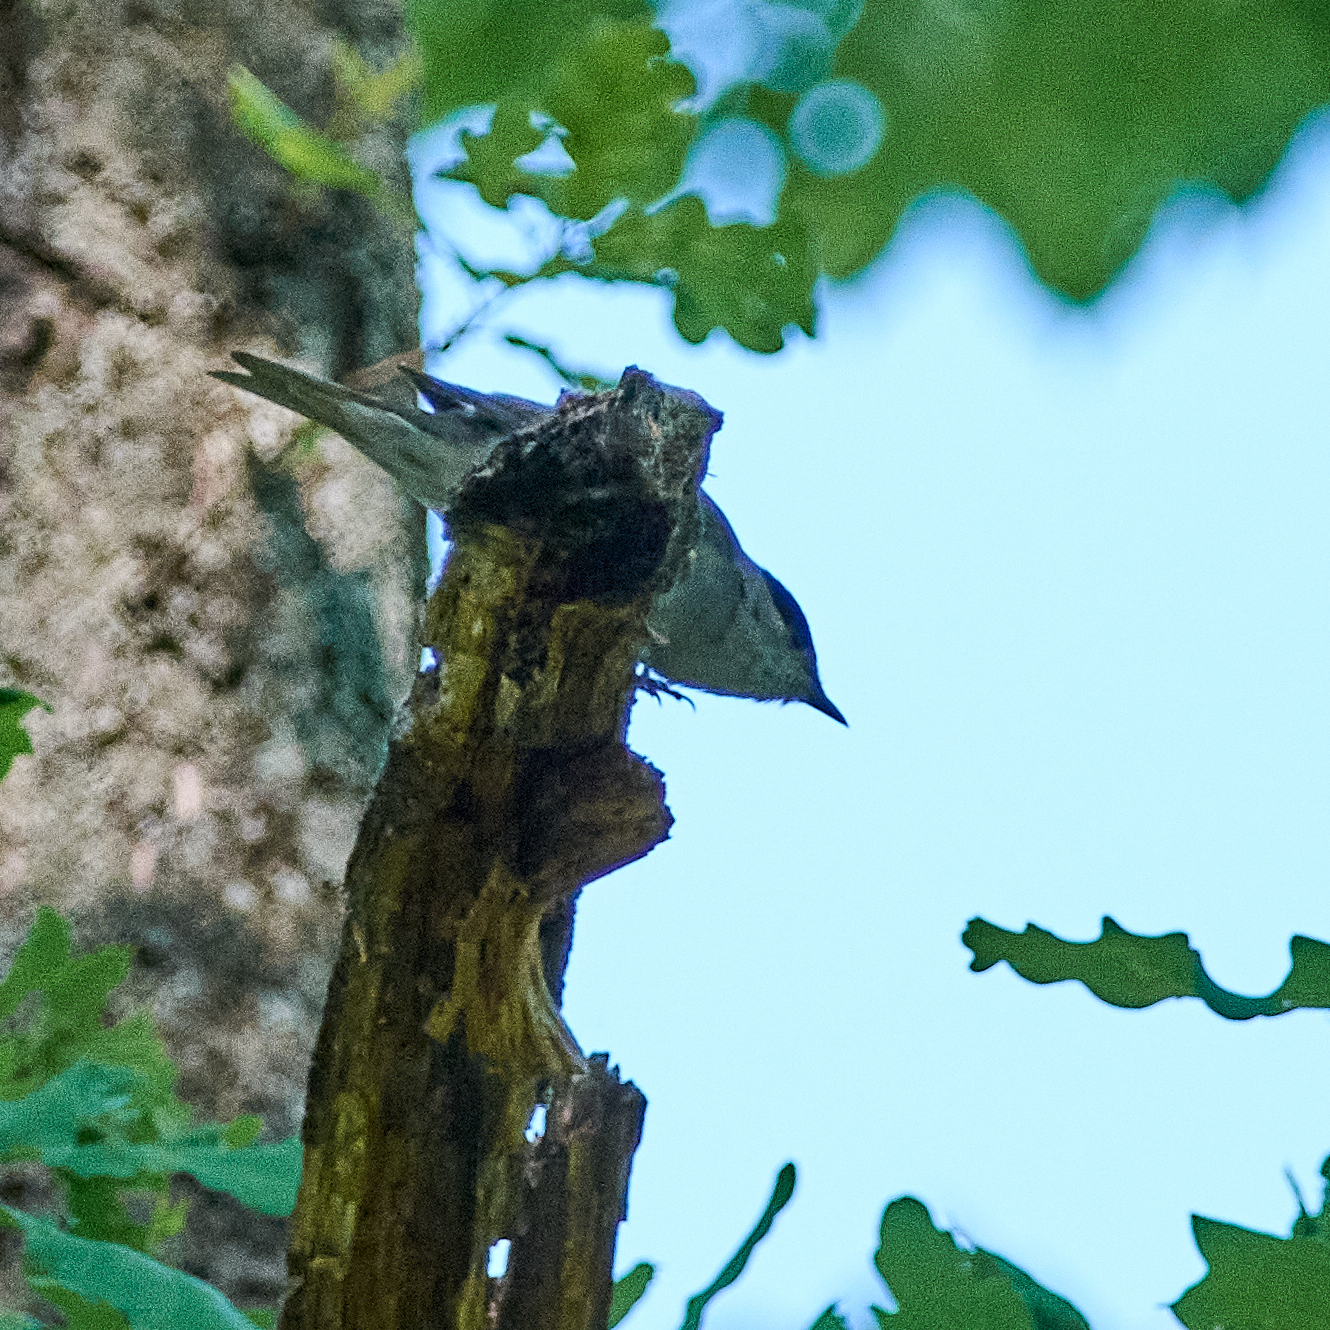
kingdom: Animalia
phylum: Chordata
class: Aves
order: Passeriformes
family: Sylviidae
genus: Sylvia
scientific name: Sylvia atricapilla
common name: Eurasian blackcap
